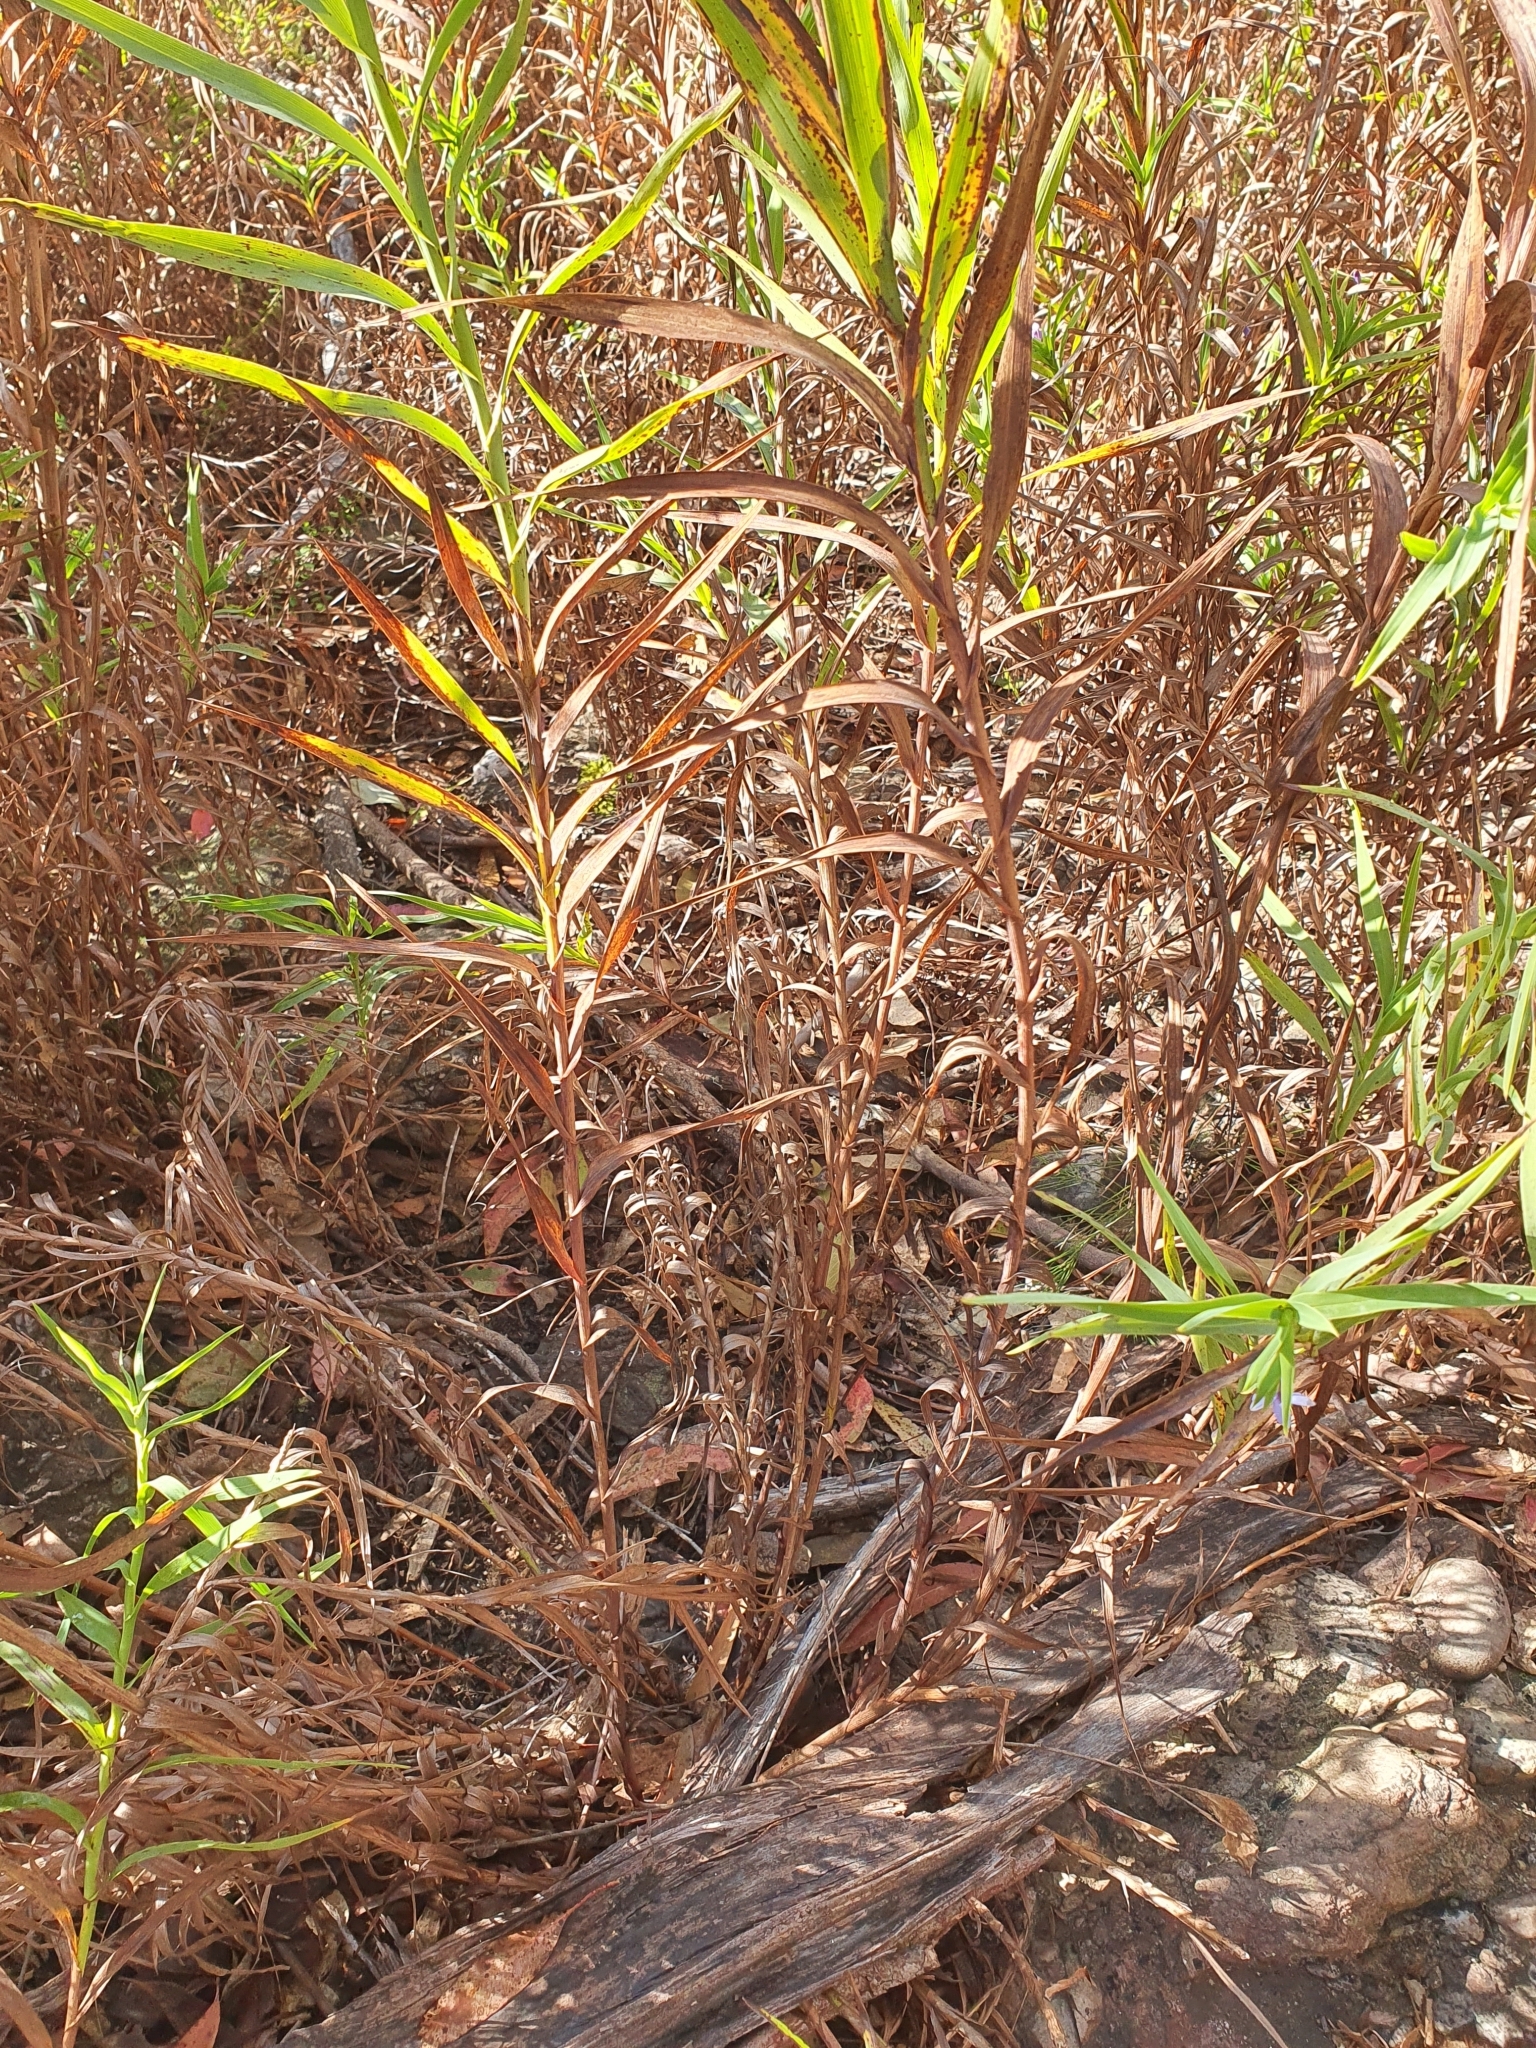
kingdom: Plantae
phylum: Tracheophyta
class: Liliopsida
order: Asparagales
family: Asphodelaceae
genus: Stypandra
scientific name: Stypandra glauca
